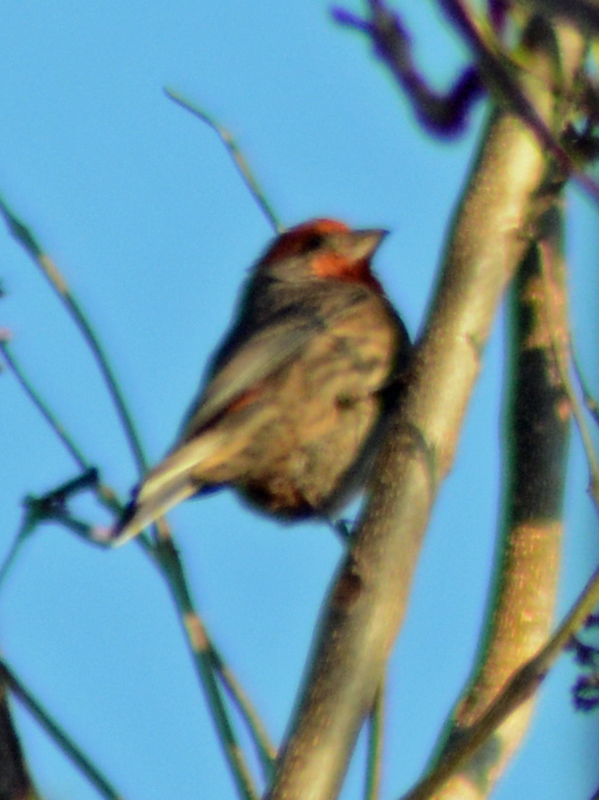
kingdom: Animalia
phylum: Chordata
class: Aves
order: Passeriformes
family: Fringillidae
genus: Haemorhous
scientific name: Haemorhous mexicanus
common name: House finch
